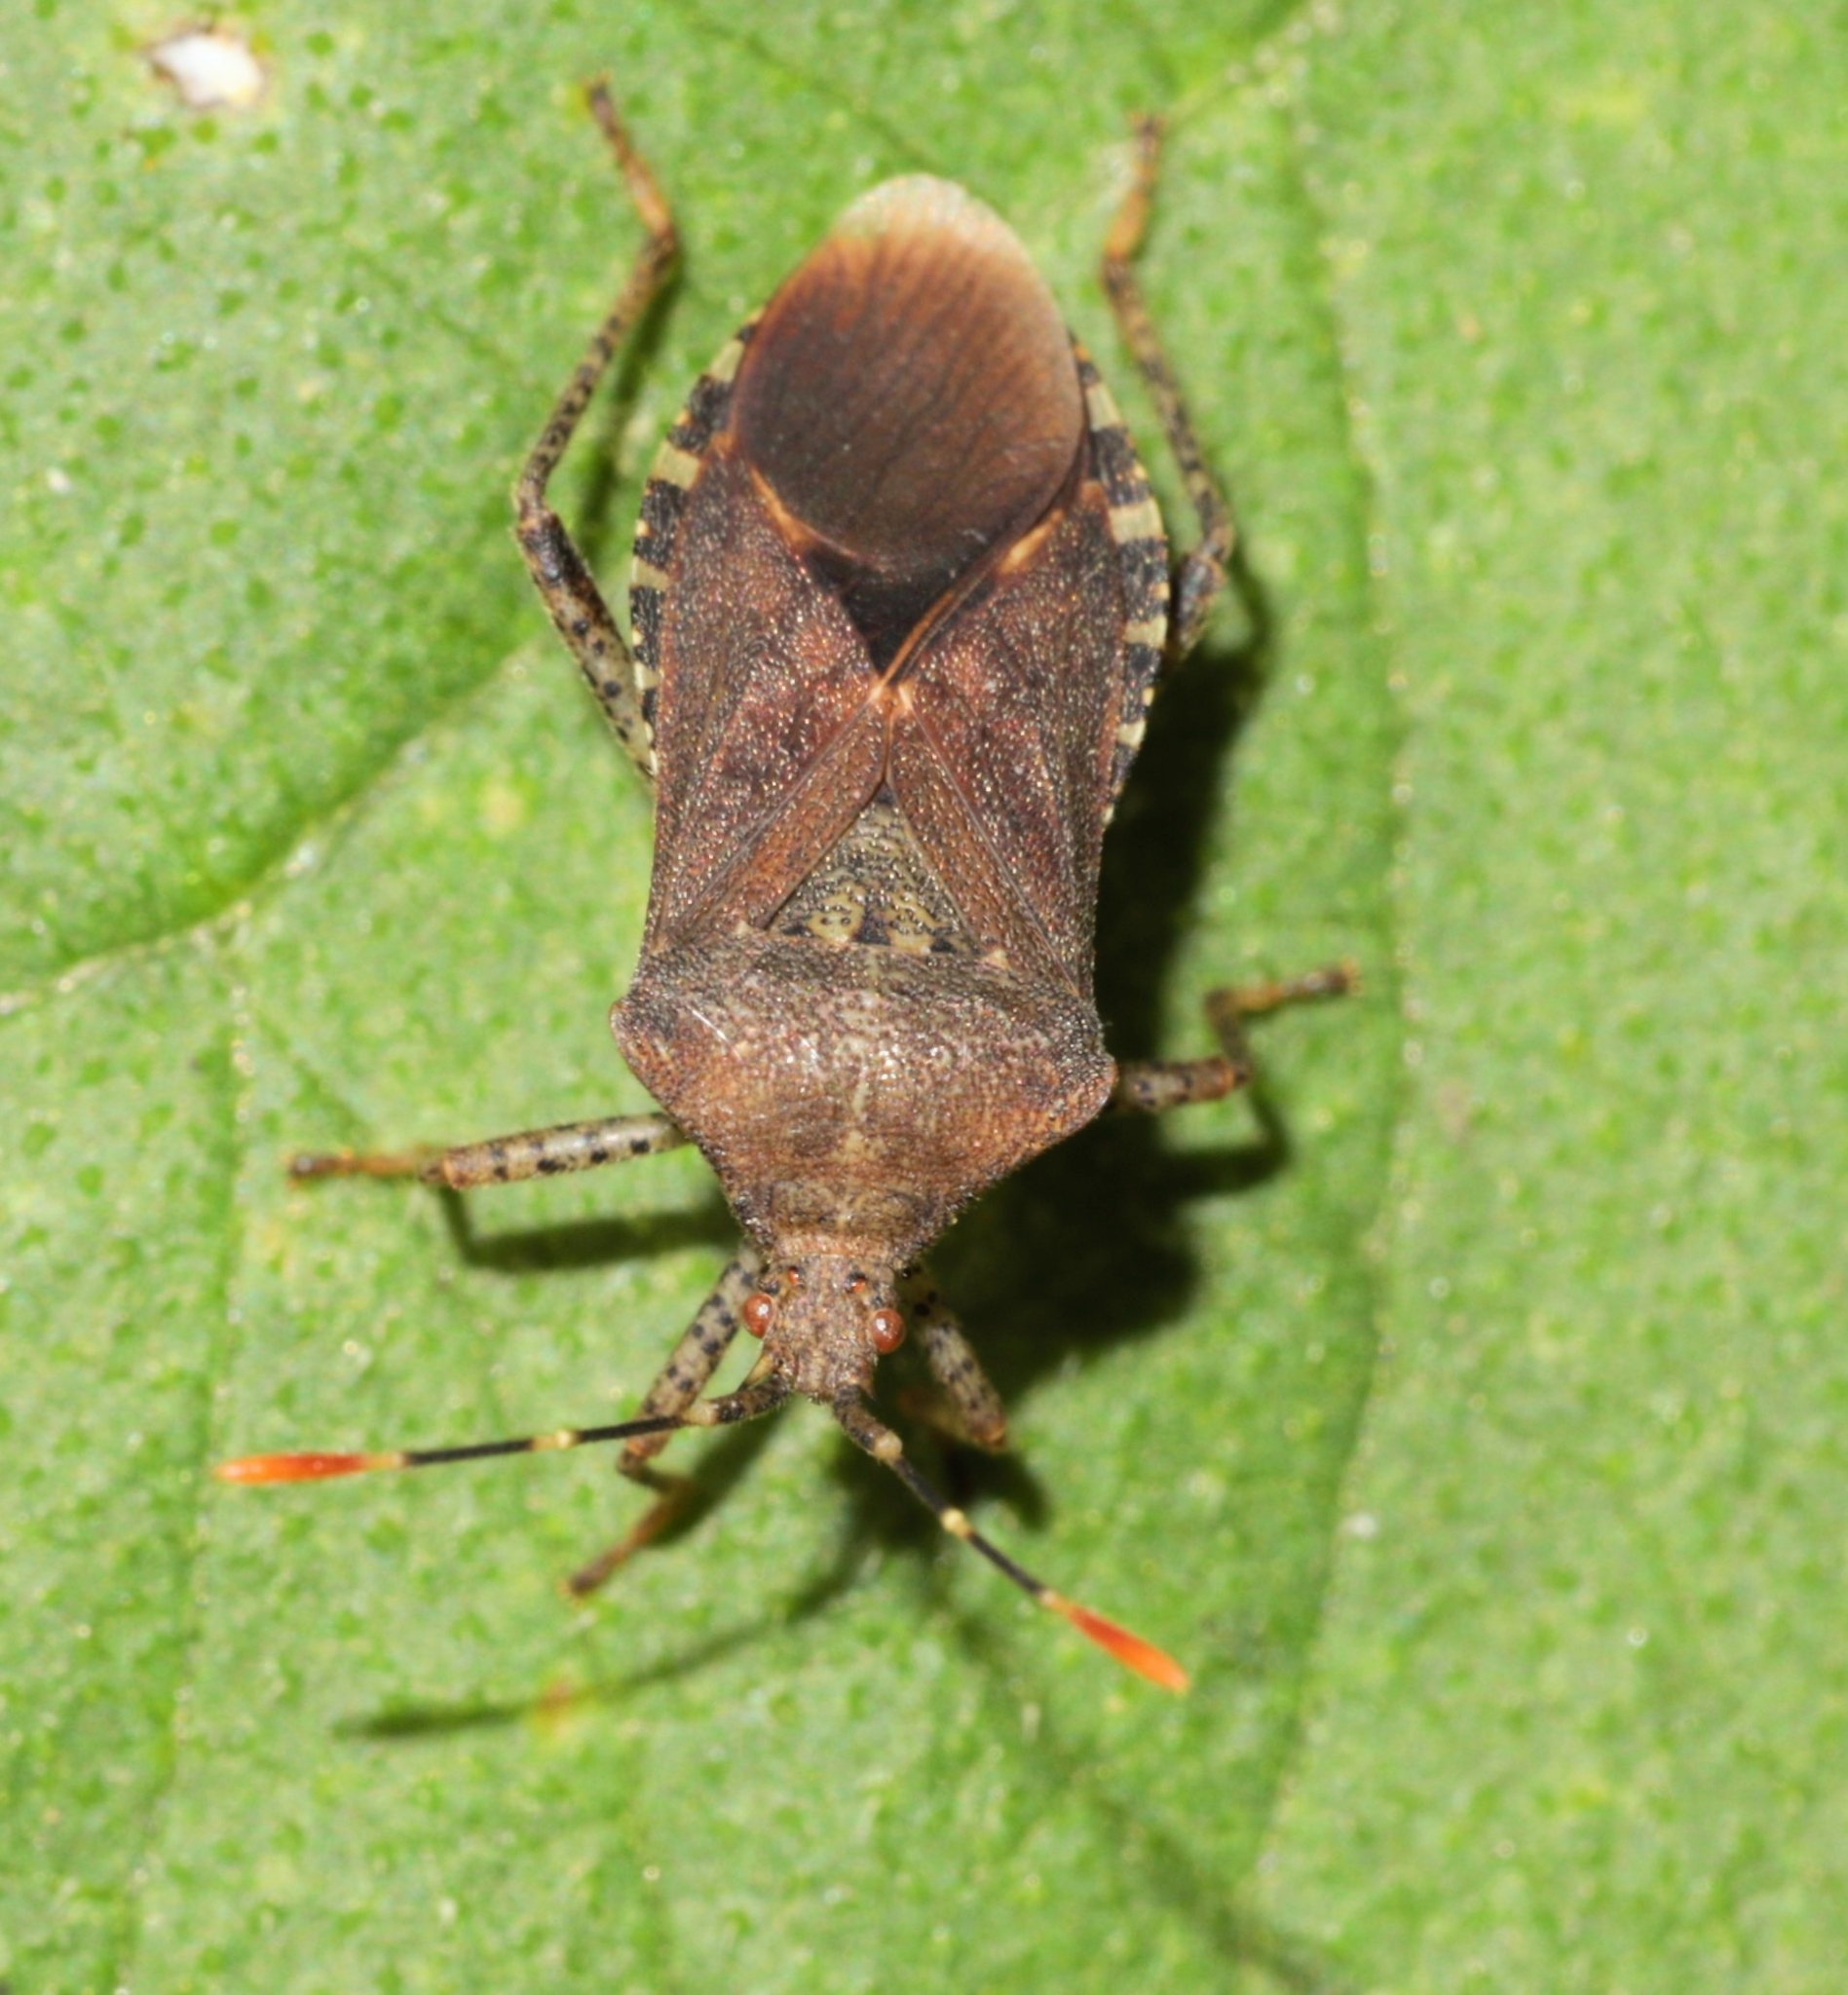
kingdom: Animalia
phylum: Arthropoda
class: Insecta
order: Hemiptera
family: Coreidae
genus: Anasa
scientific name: Anasa armigera
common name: Horned squash bug
